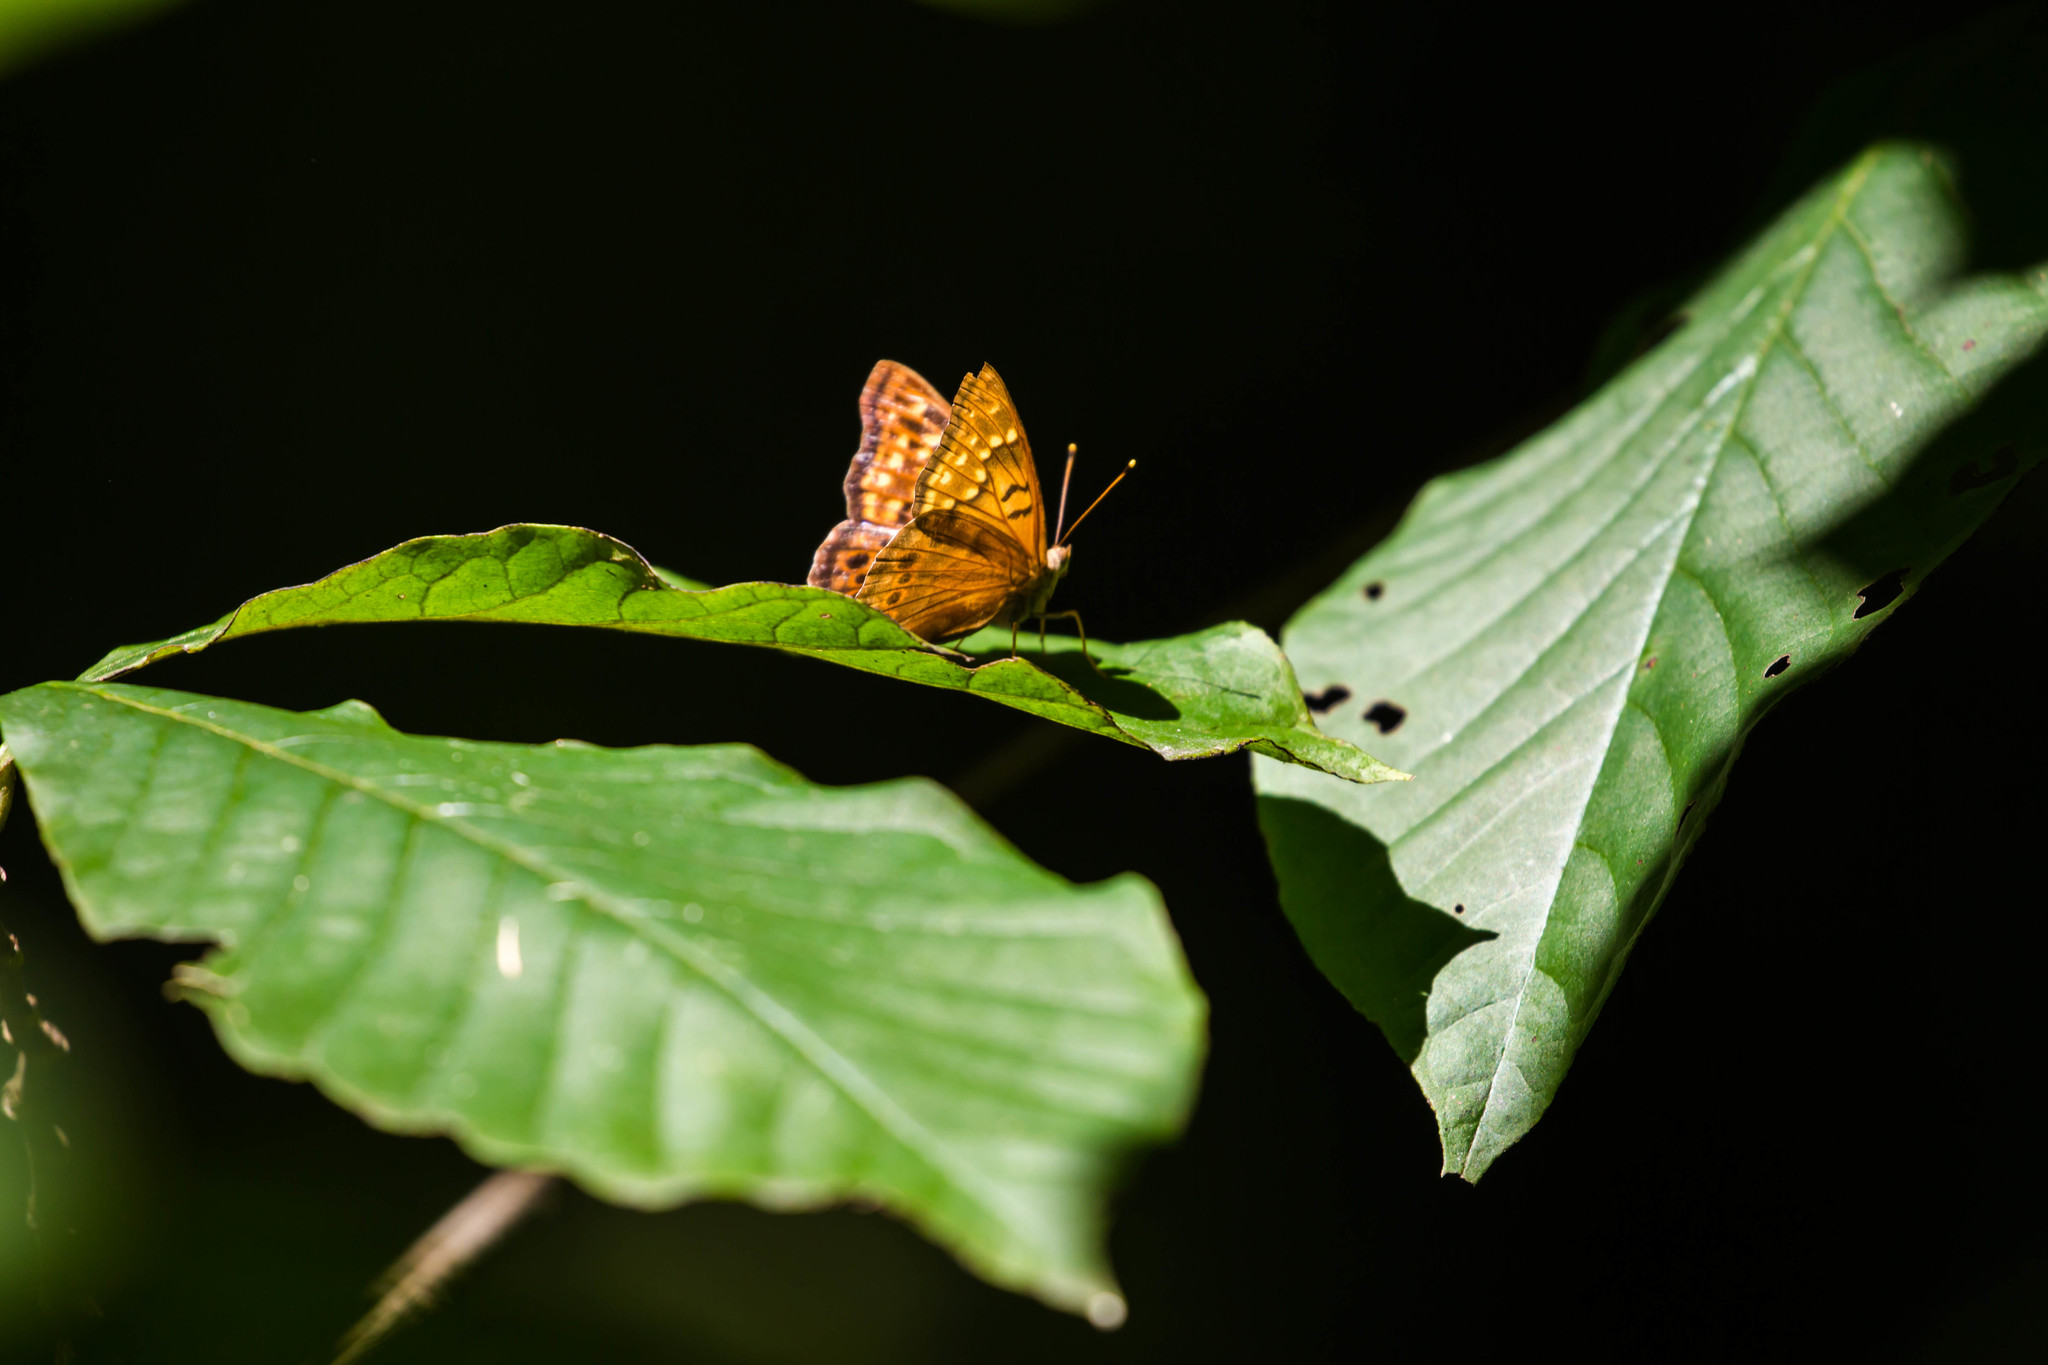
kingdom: Animalia
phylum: Arthropoda
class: Insecta
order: Lepidoptera
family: Nymphalidae
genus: Asterocampa
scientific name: Asterocampa clyton
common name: Tawny emperor
